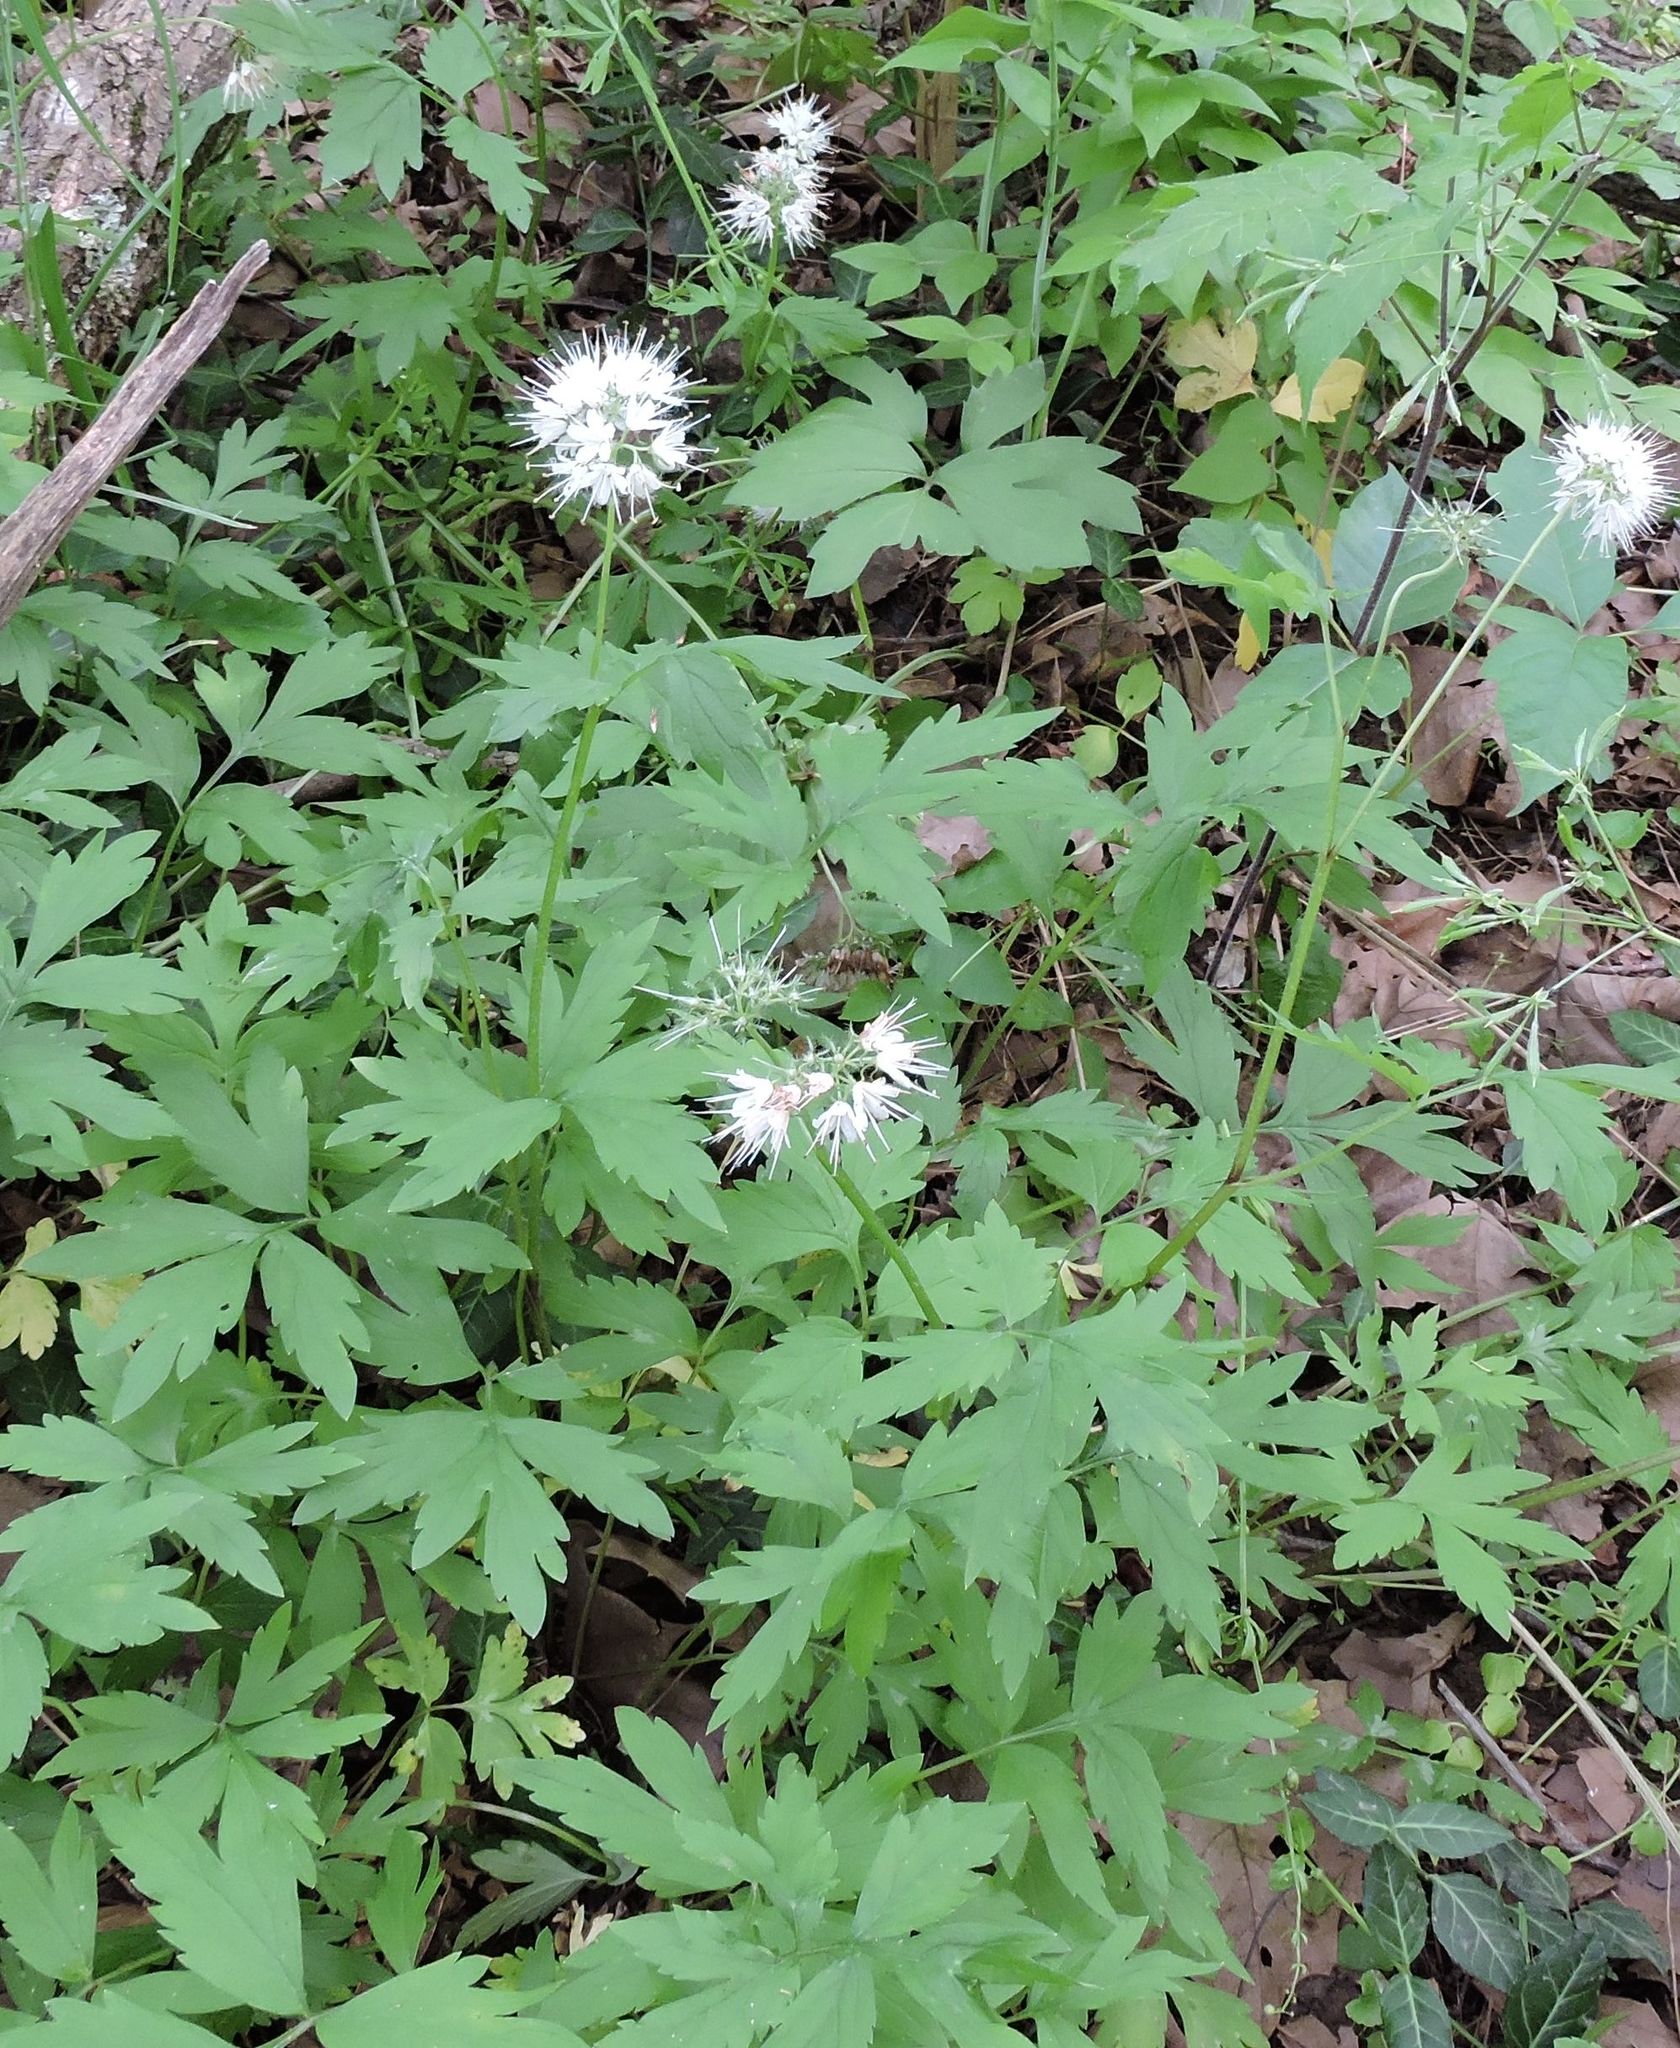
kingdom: Plantae
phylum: Tracheophyta
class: Magnoliopsida
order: Boraginales
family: Hydrophyllaceae
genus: Hydrophyllum
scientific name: Hydrophyllum virginianum
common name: Virginia waterleaf
